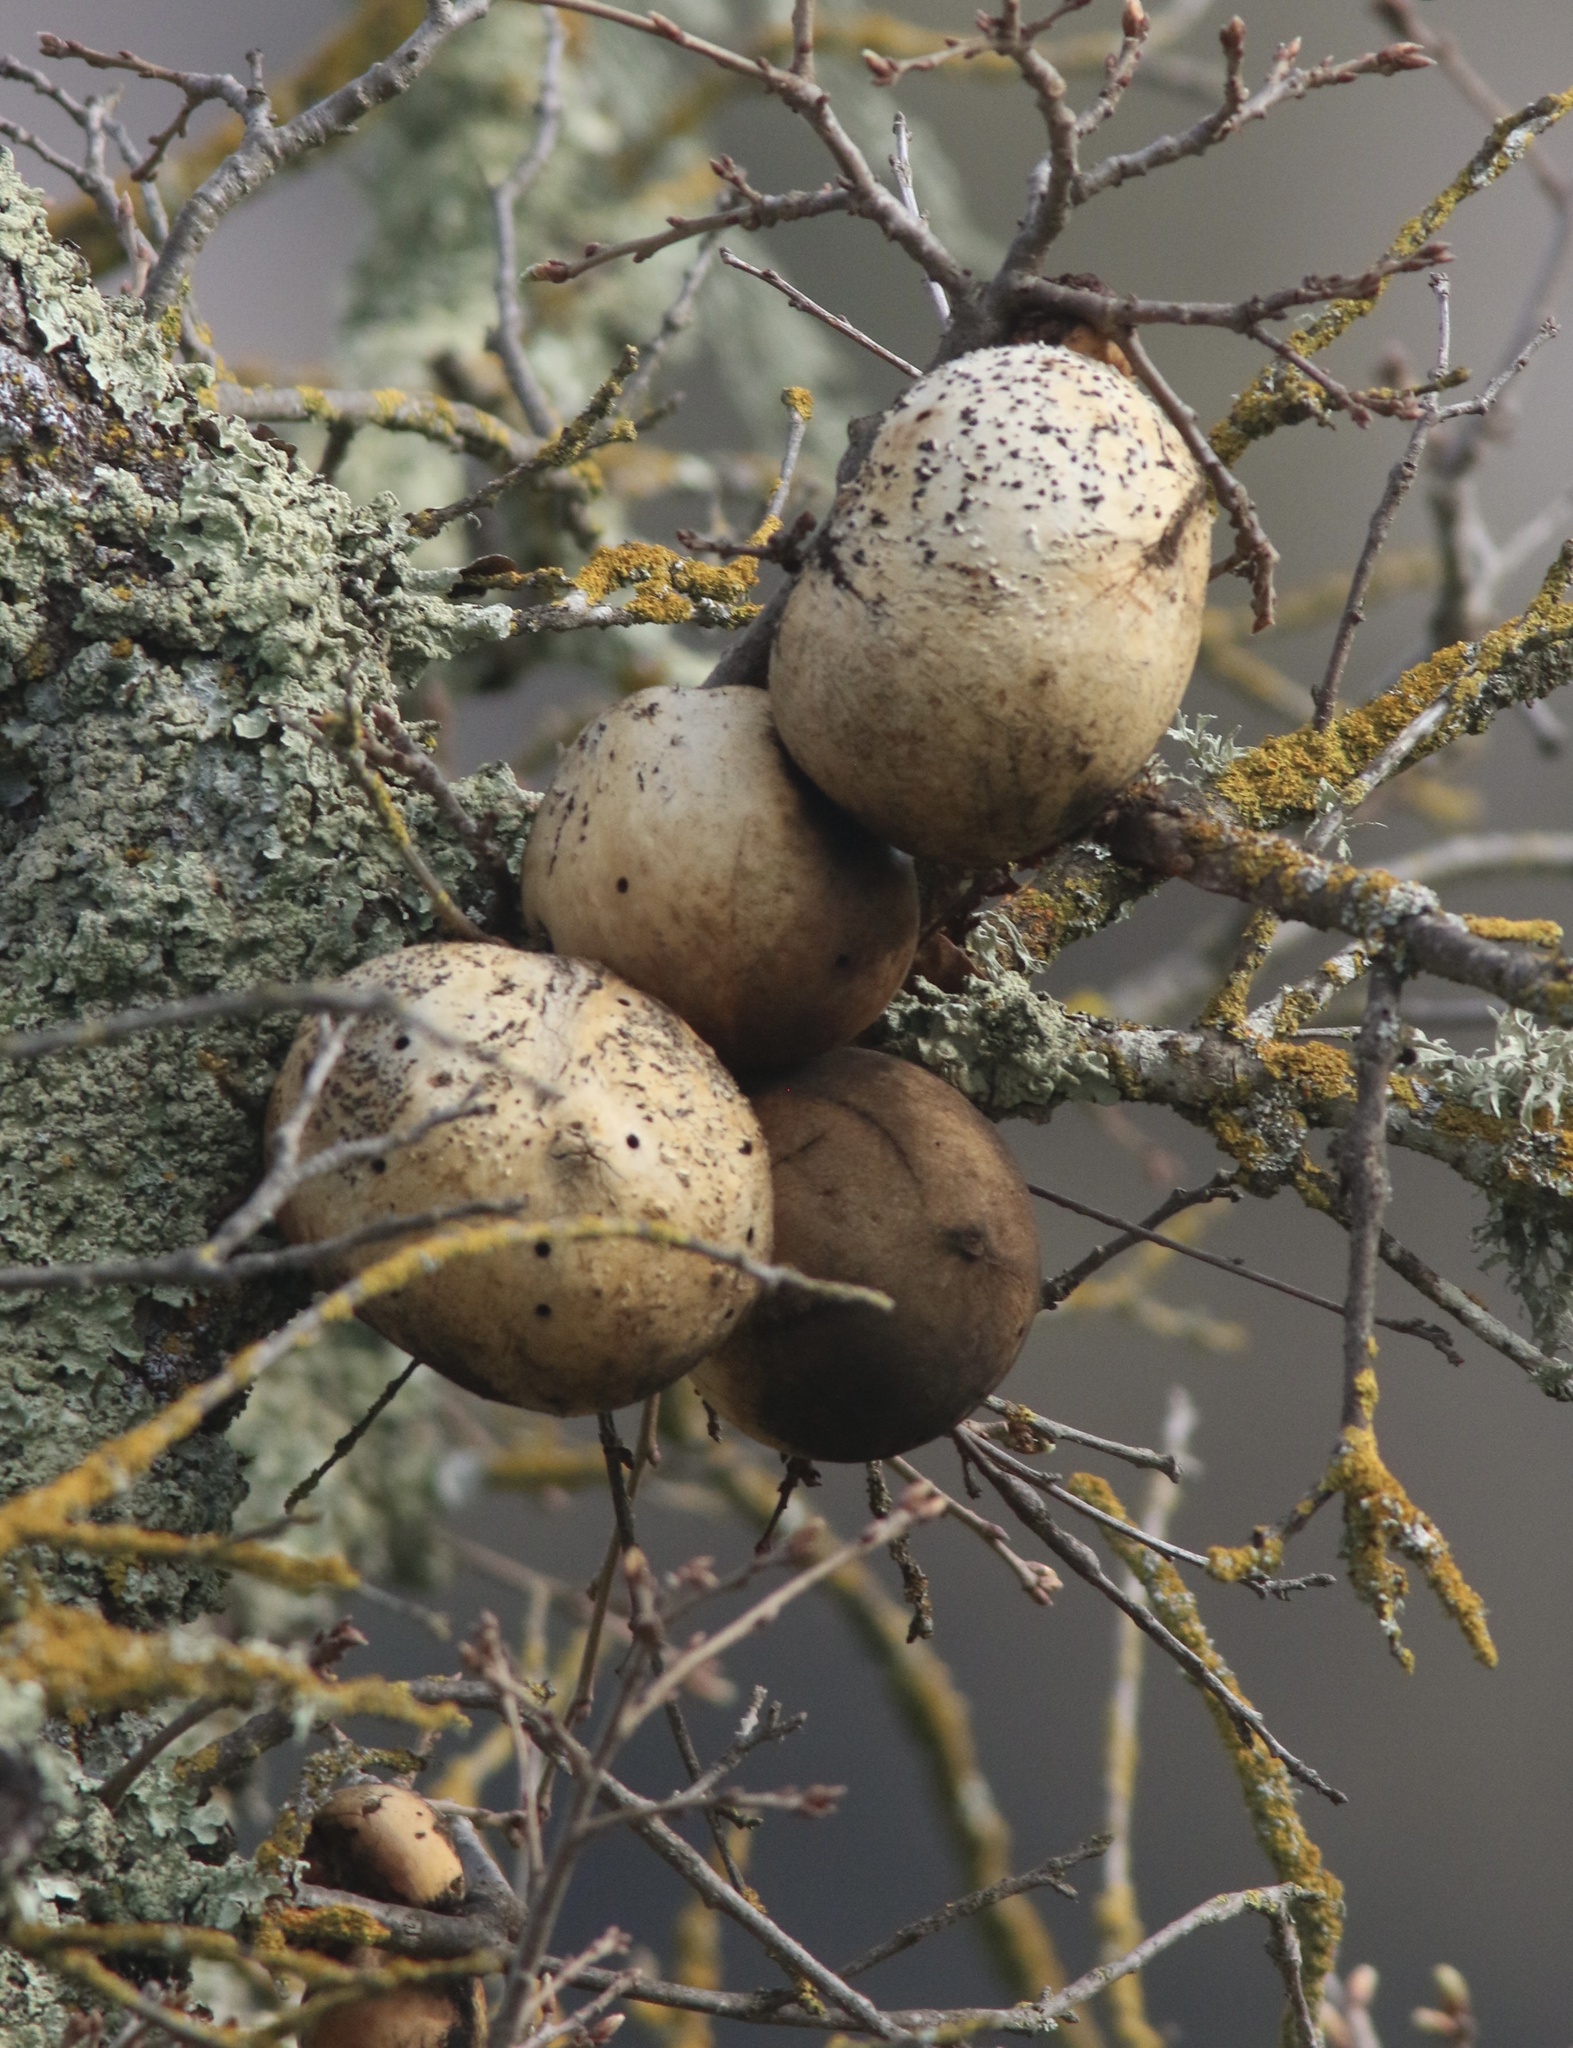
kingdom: Animalia
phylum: Arthropoda
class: Insecta
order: Hymenoptera
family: Cynipidae
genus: Andricus
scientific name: Andricus quercuscalifornicus
